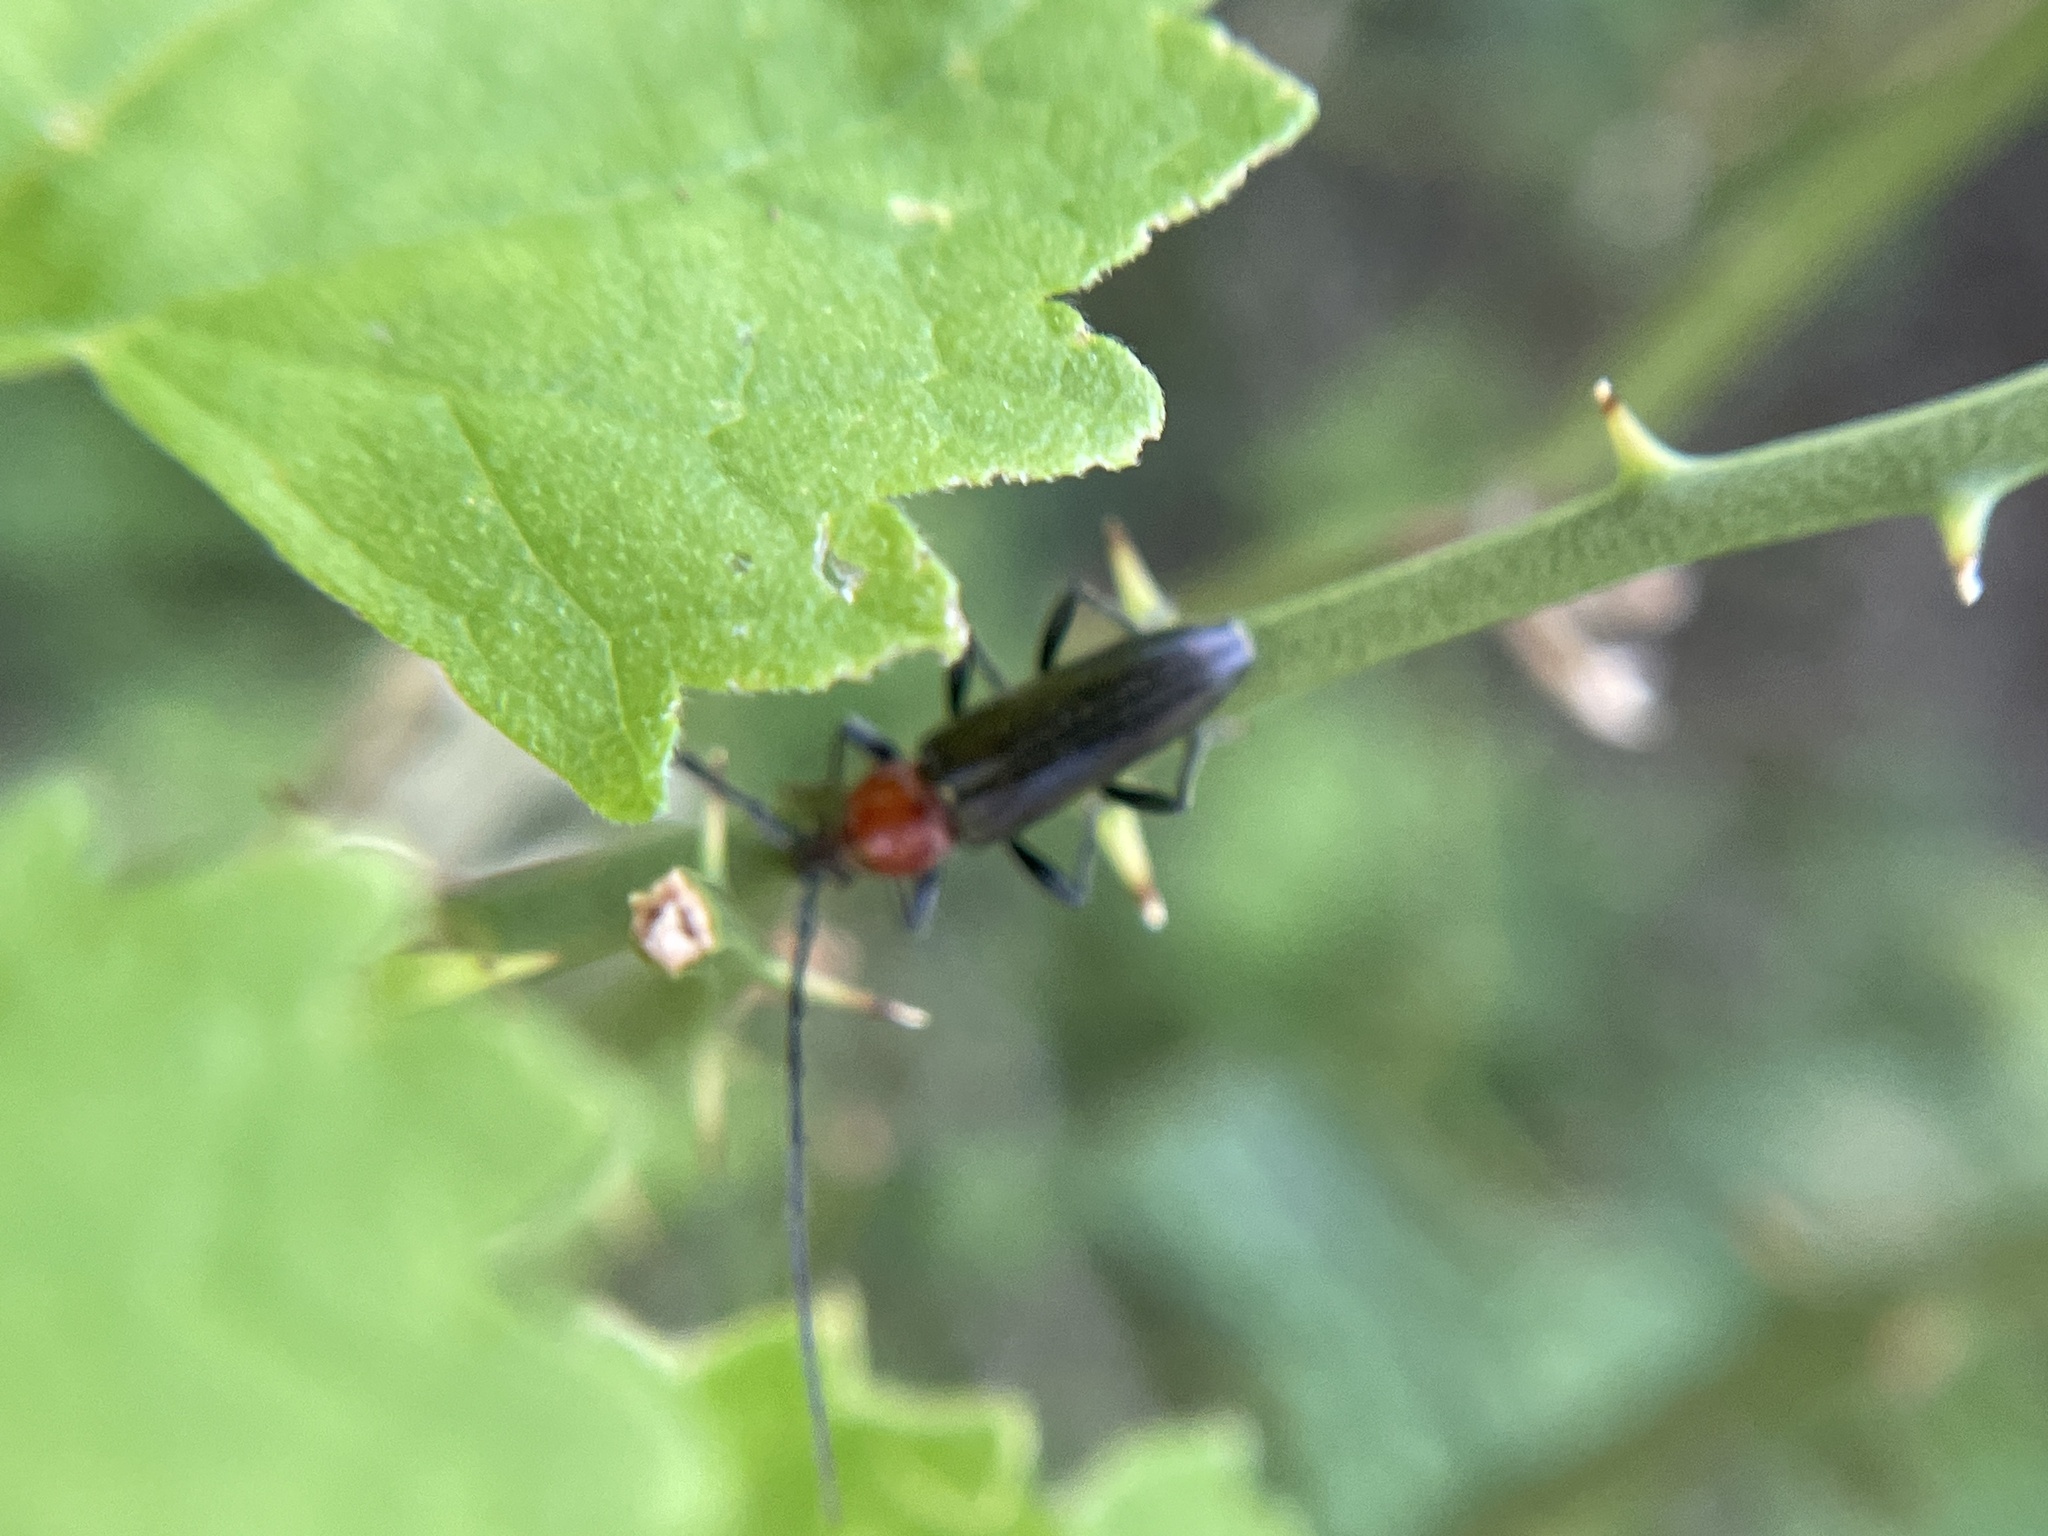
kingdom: Animalia
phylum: Arthropoda
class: Insecta
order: Coleoptera
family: Cerambycidae
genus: Stenosphenus
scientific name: Stenosphenus dolosus
